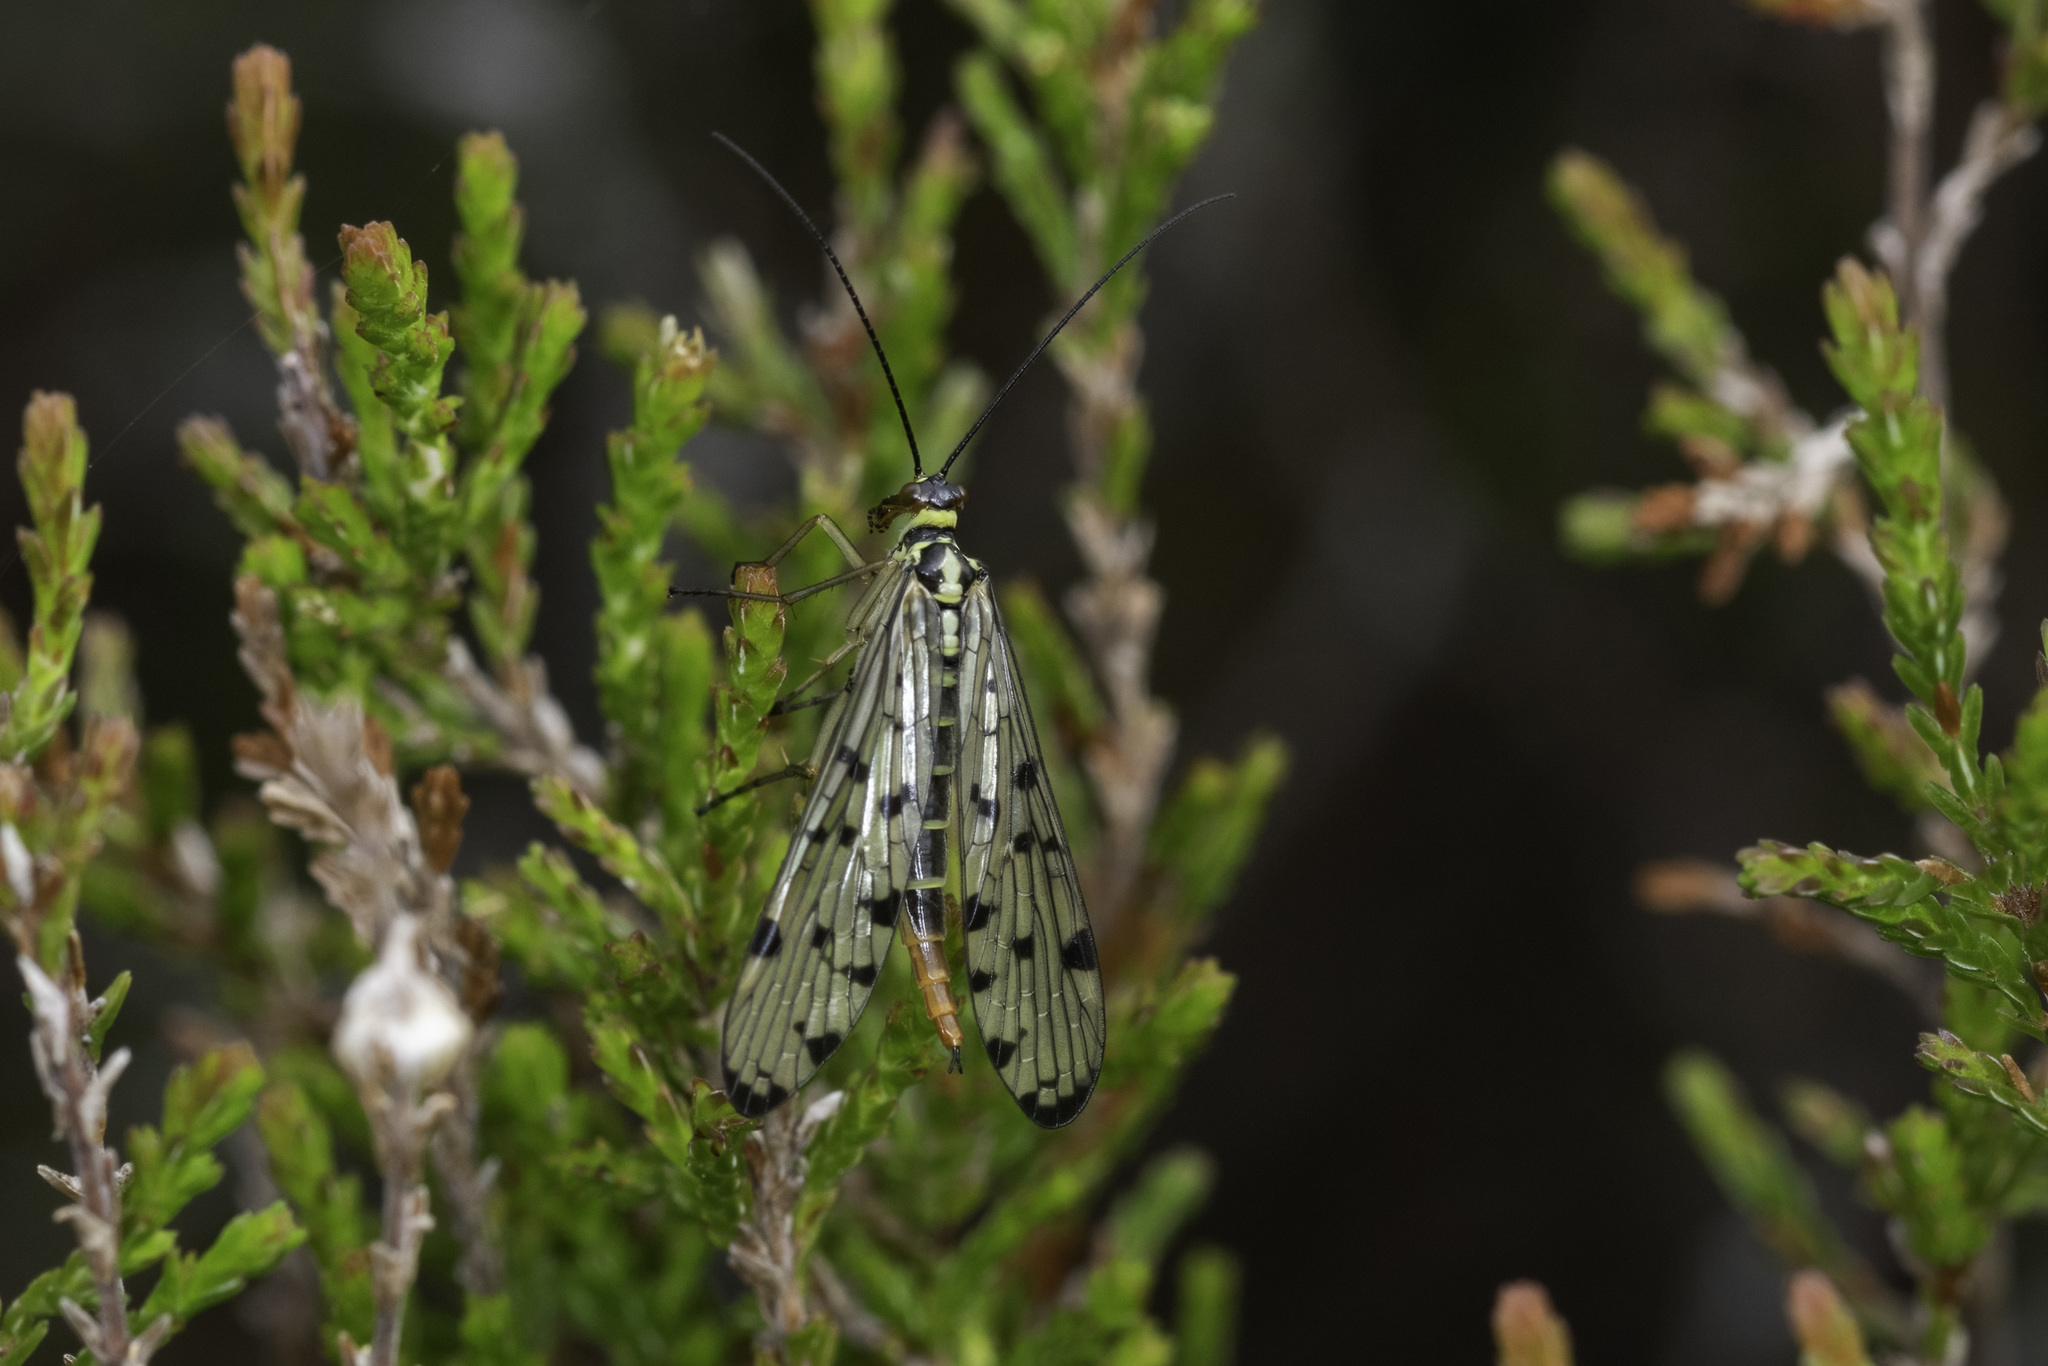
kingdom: Animalia
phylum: Arthropoda
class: Insecta
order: Mecoptera
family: Panorpidae
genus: Panorpa
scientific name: Panorpa germanica
